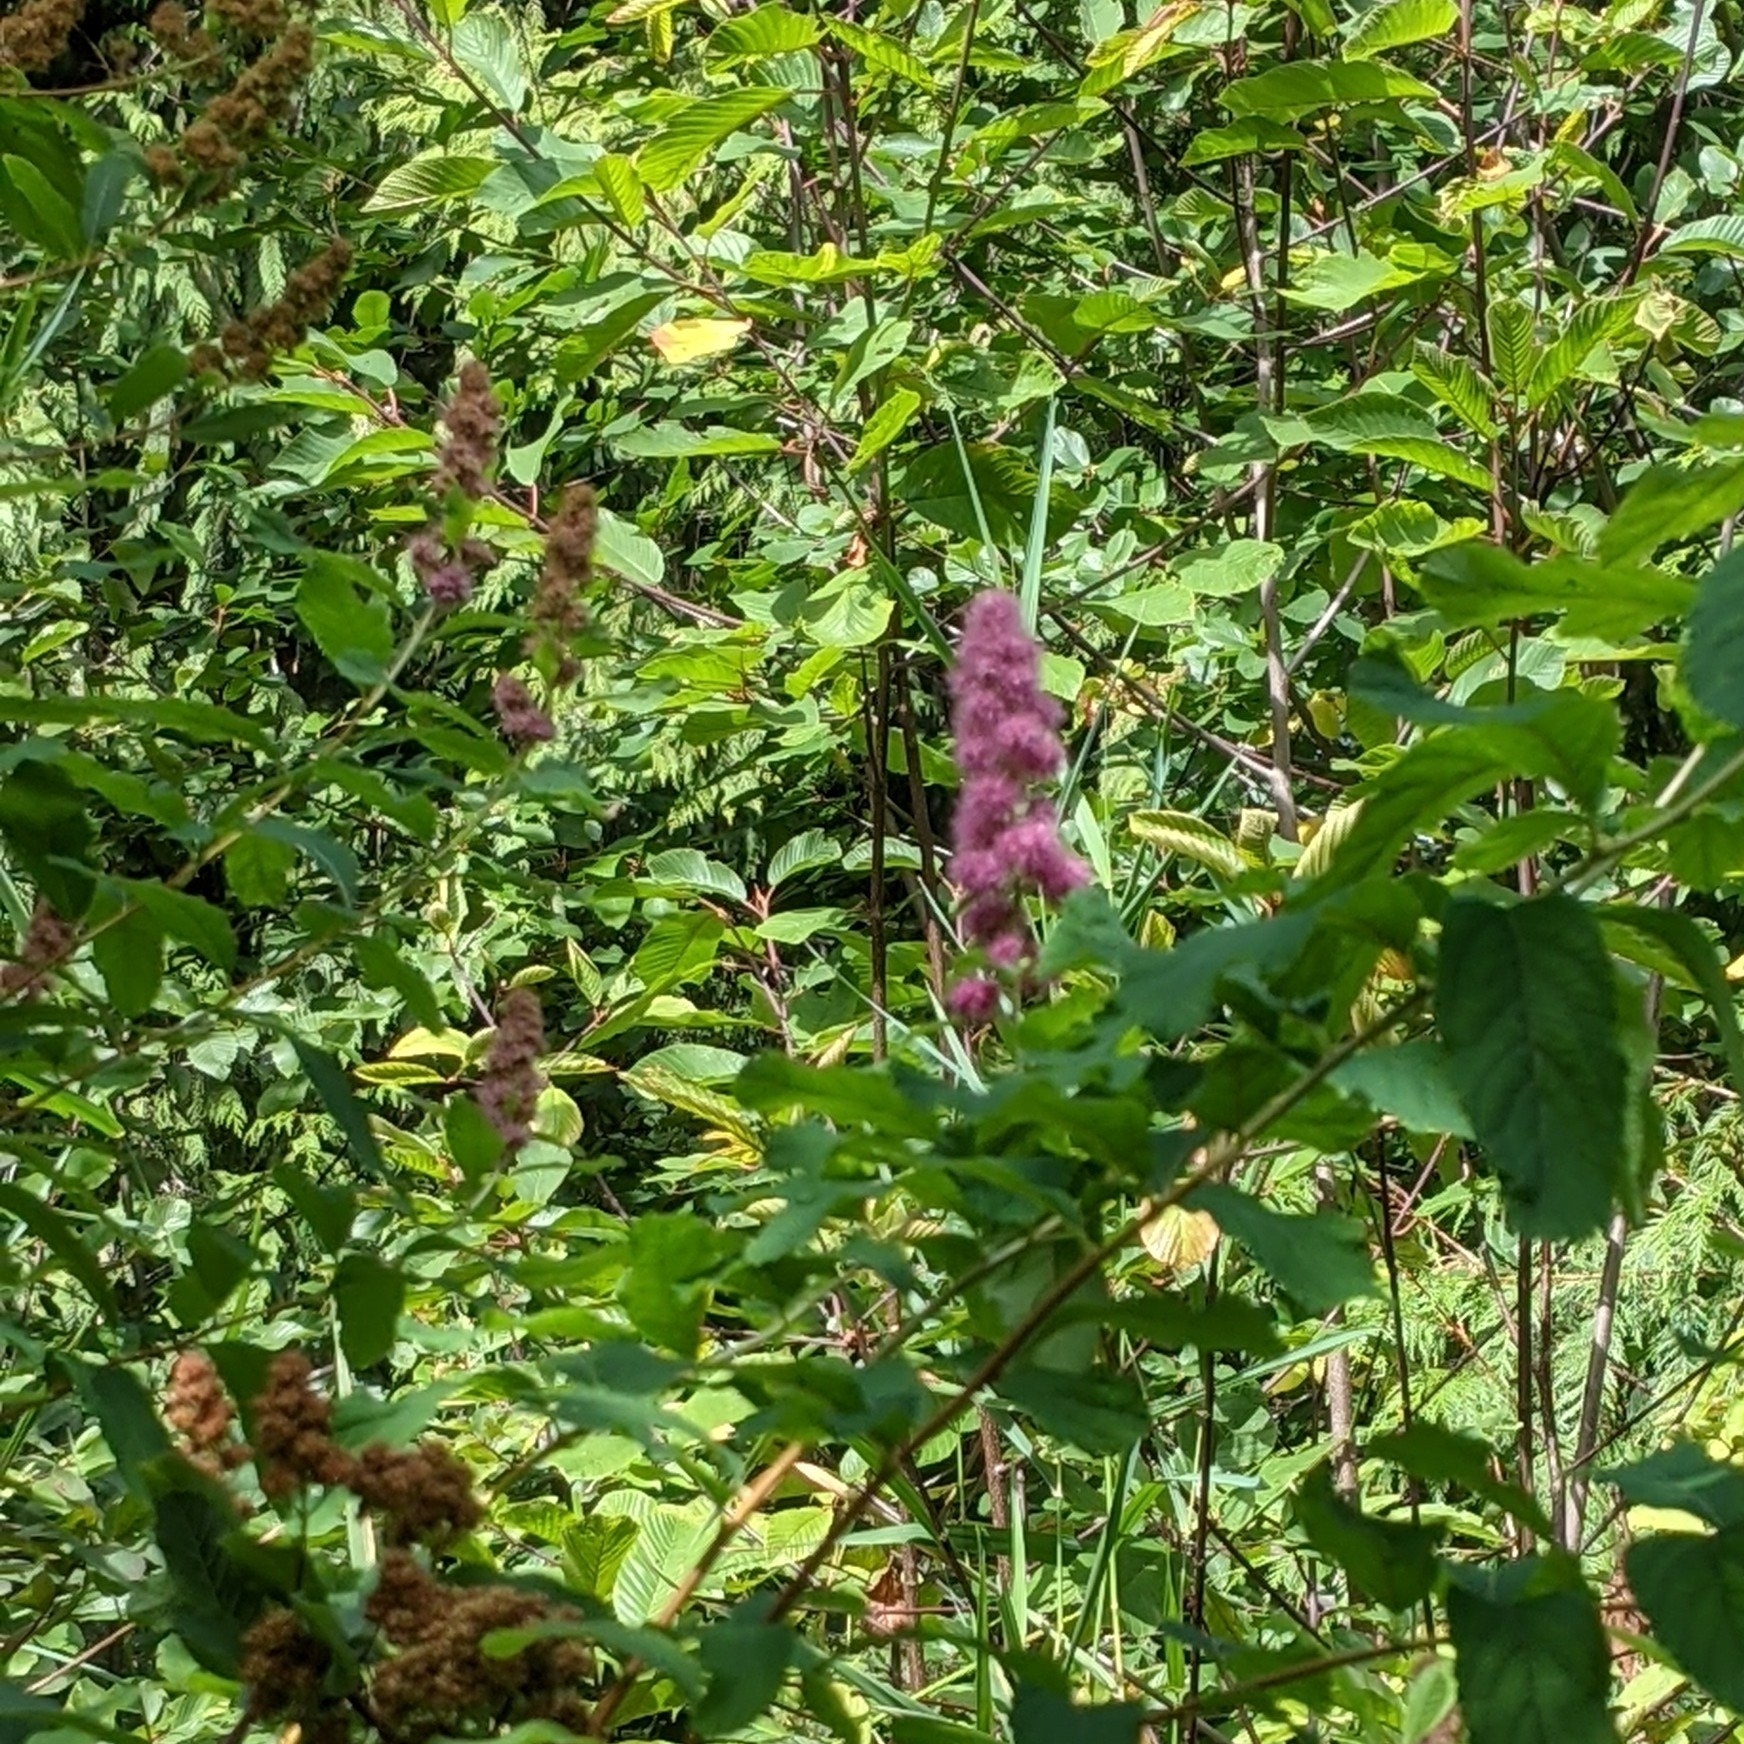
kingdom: Plantae
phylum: Tracheophyta
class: Magnoliopsida
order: Rosales
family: Rosaceae
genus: Spiraea
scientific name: Spiraea douglasii
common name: Steeplebush
